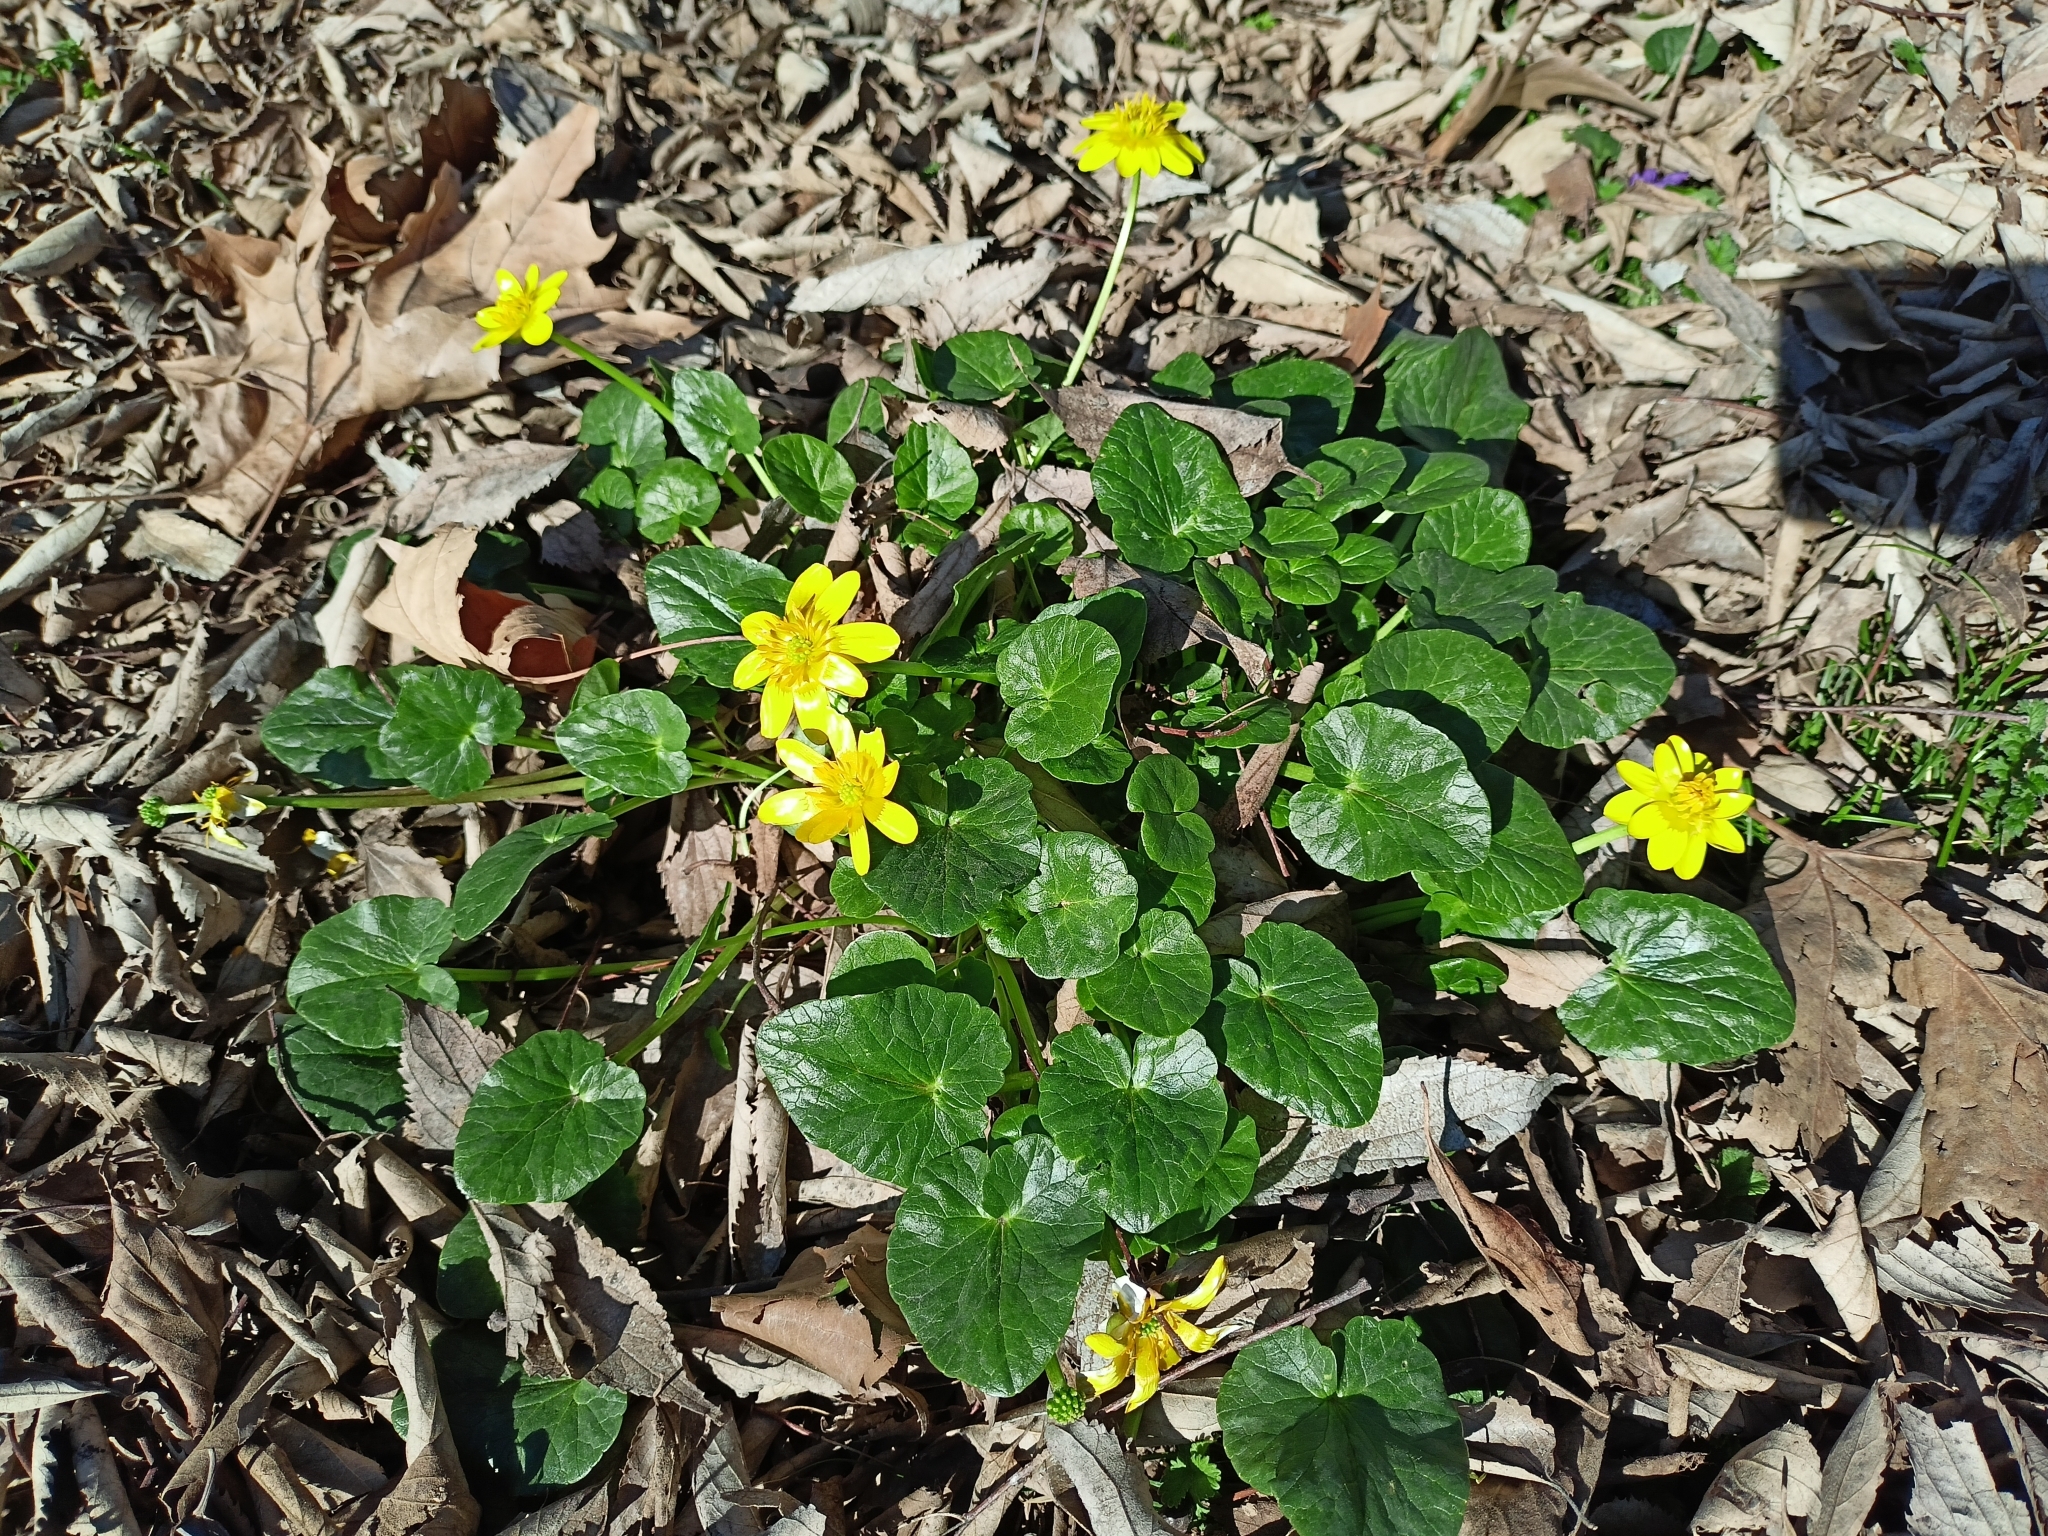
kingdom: Plantae
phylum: Tracheophyta
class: Magnoliopsida
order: Ranunculales
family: Ranunculaceae
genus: Ficaria
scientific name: Ficaria verna
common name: Lesser celandine
